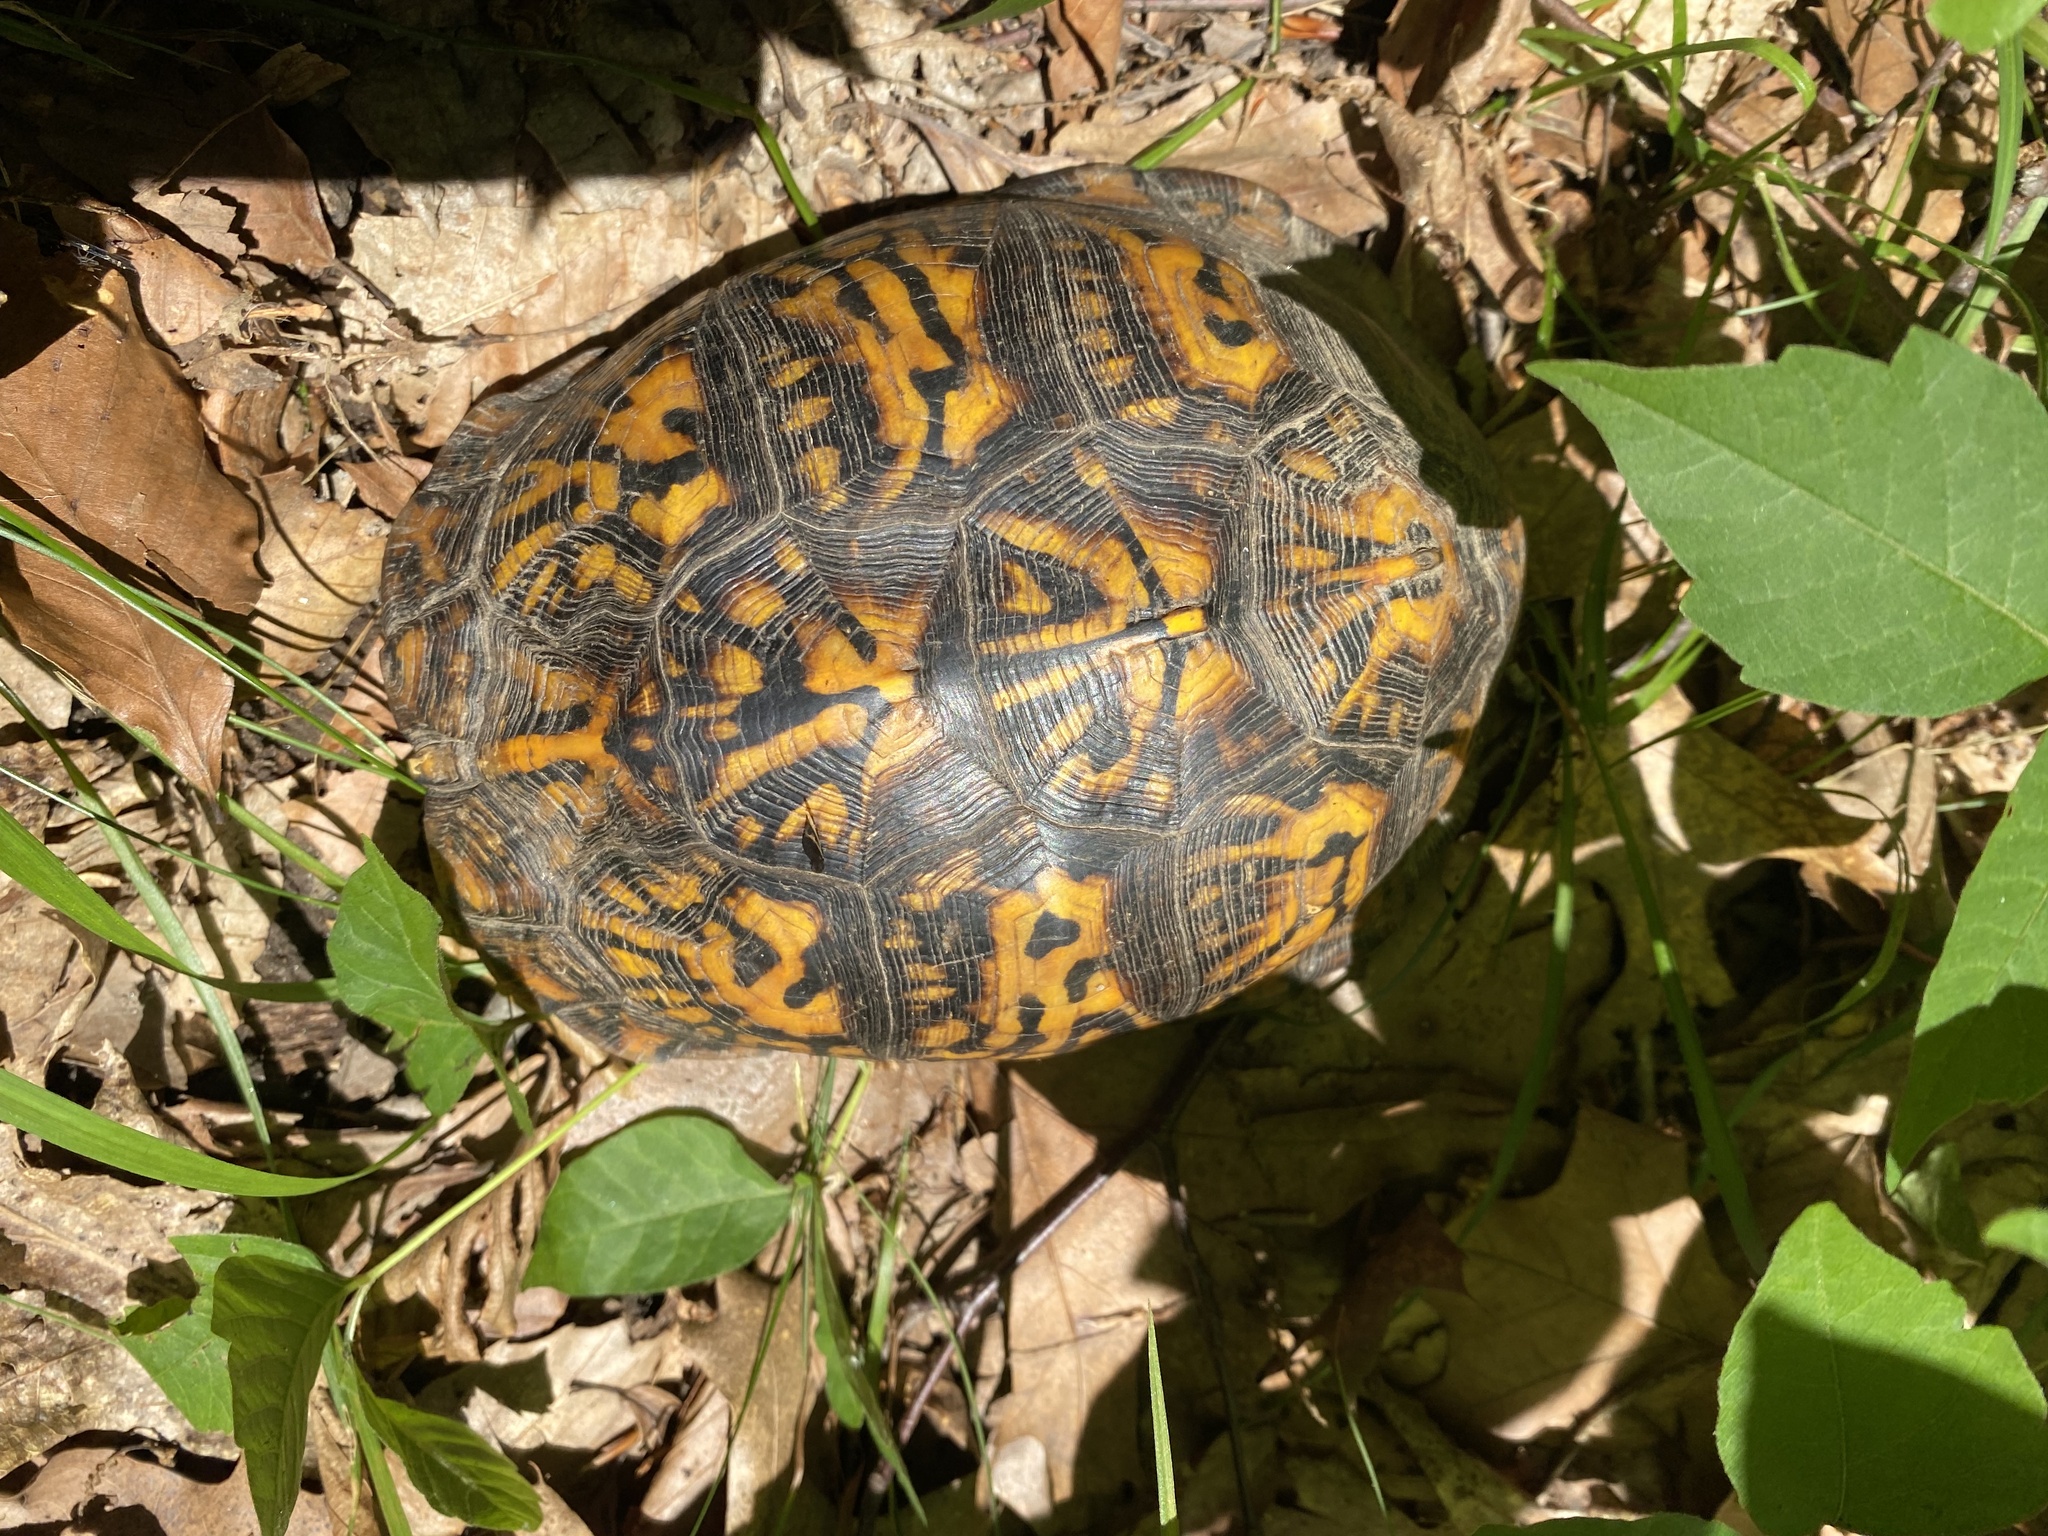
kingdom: Animalia
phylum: Chordata
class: Testudines
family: Emydidae
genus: Terrapene
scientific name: Terrapene carolina
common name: Common box turtle
